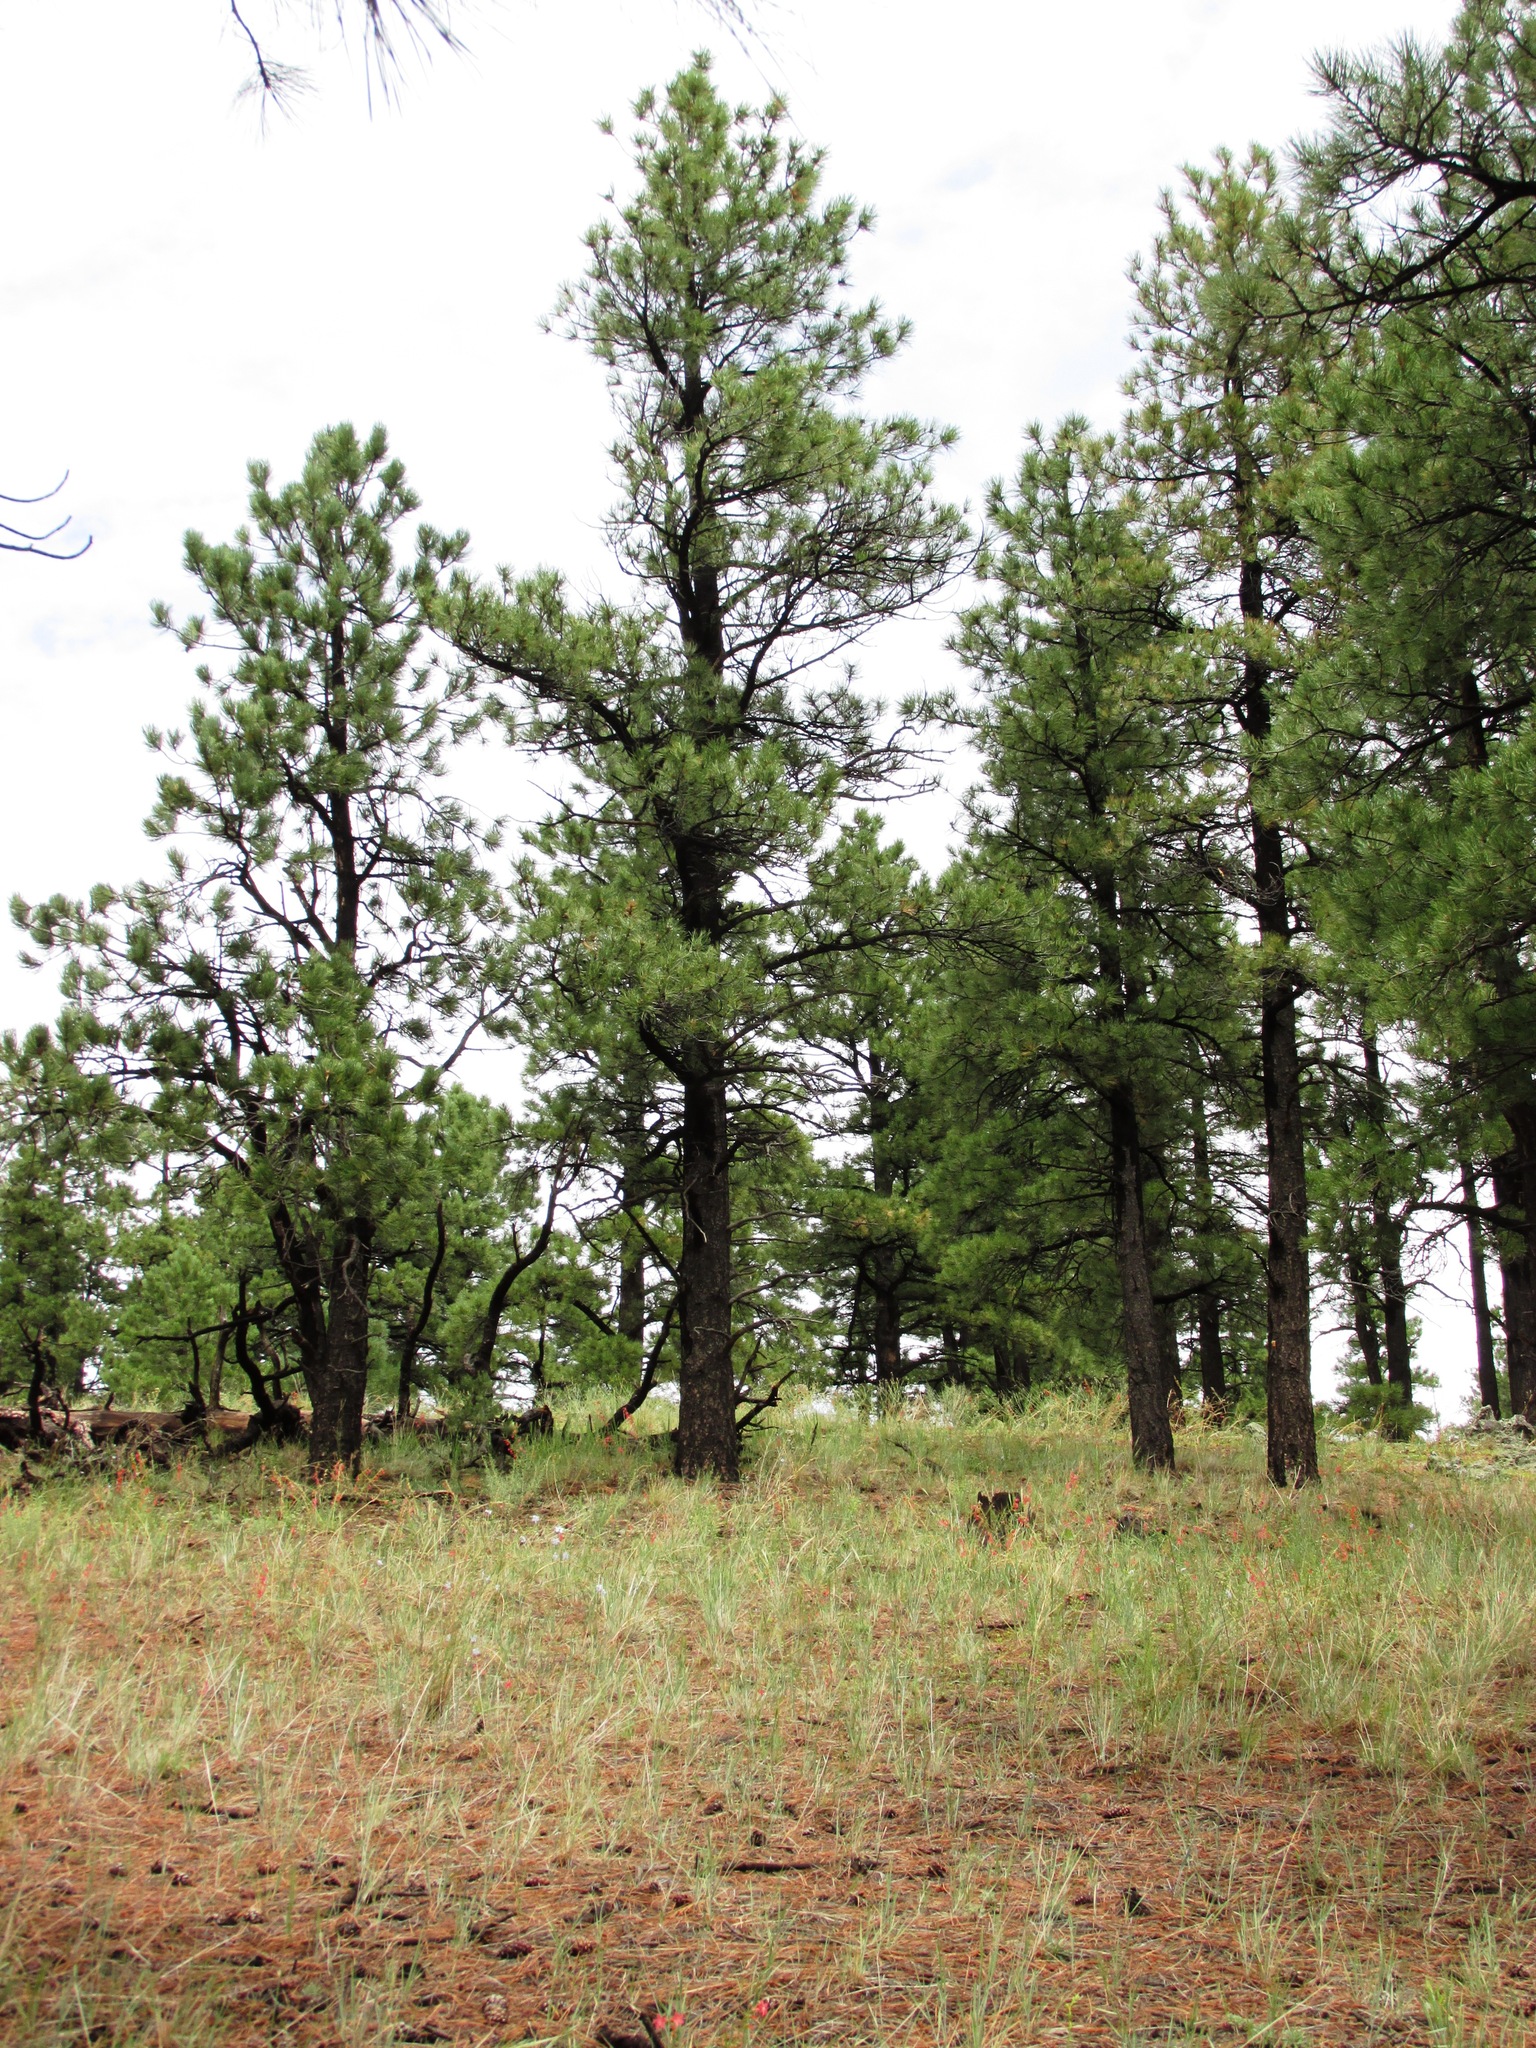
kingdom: Plantae
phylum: Tracheophyta
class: Pinopsida
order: Pinales
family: Pinaceae
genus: Pinus
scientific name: Pinus ponderosa
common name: Western yellow-pine
